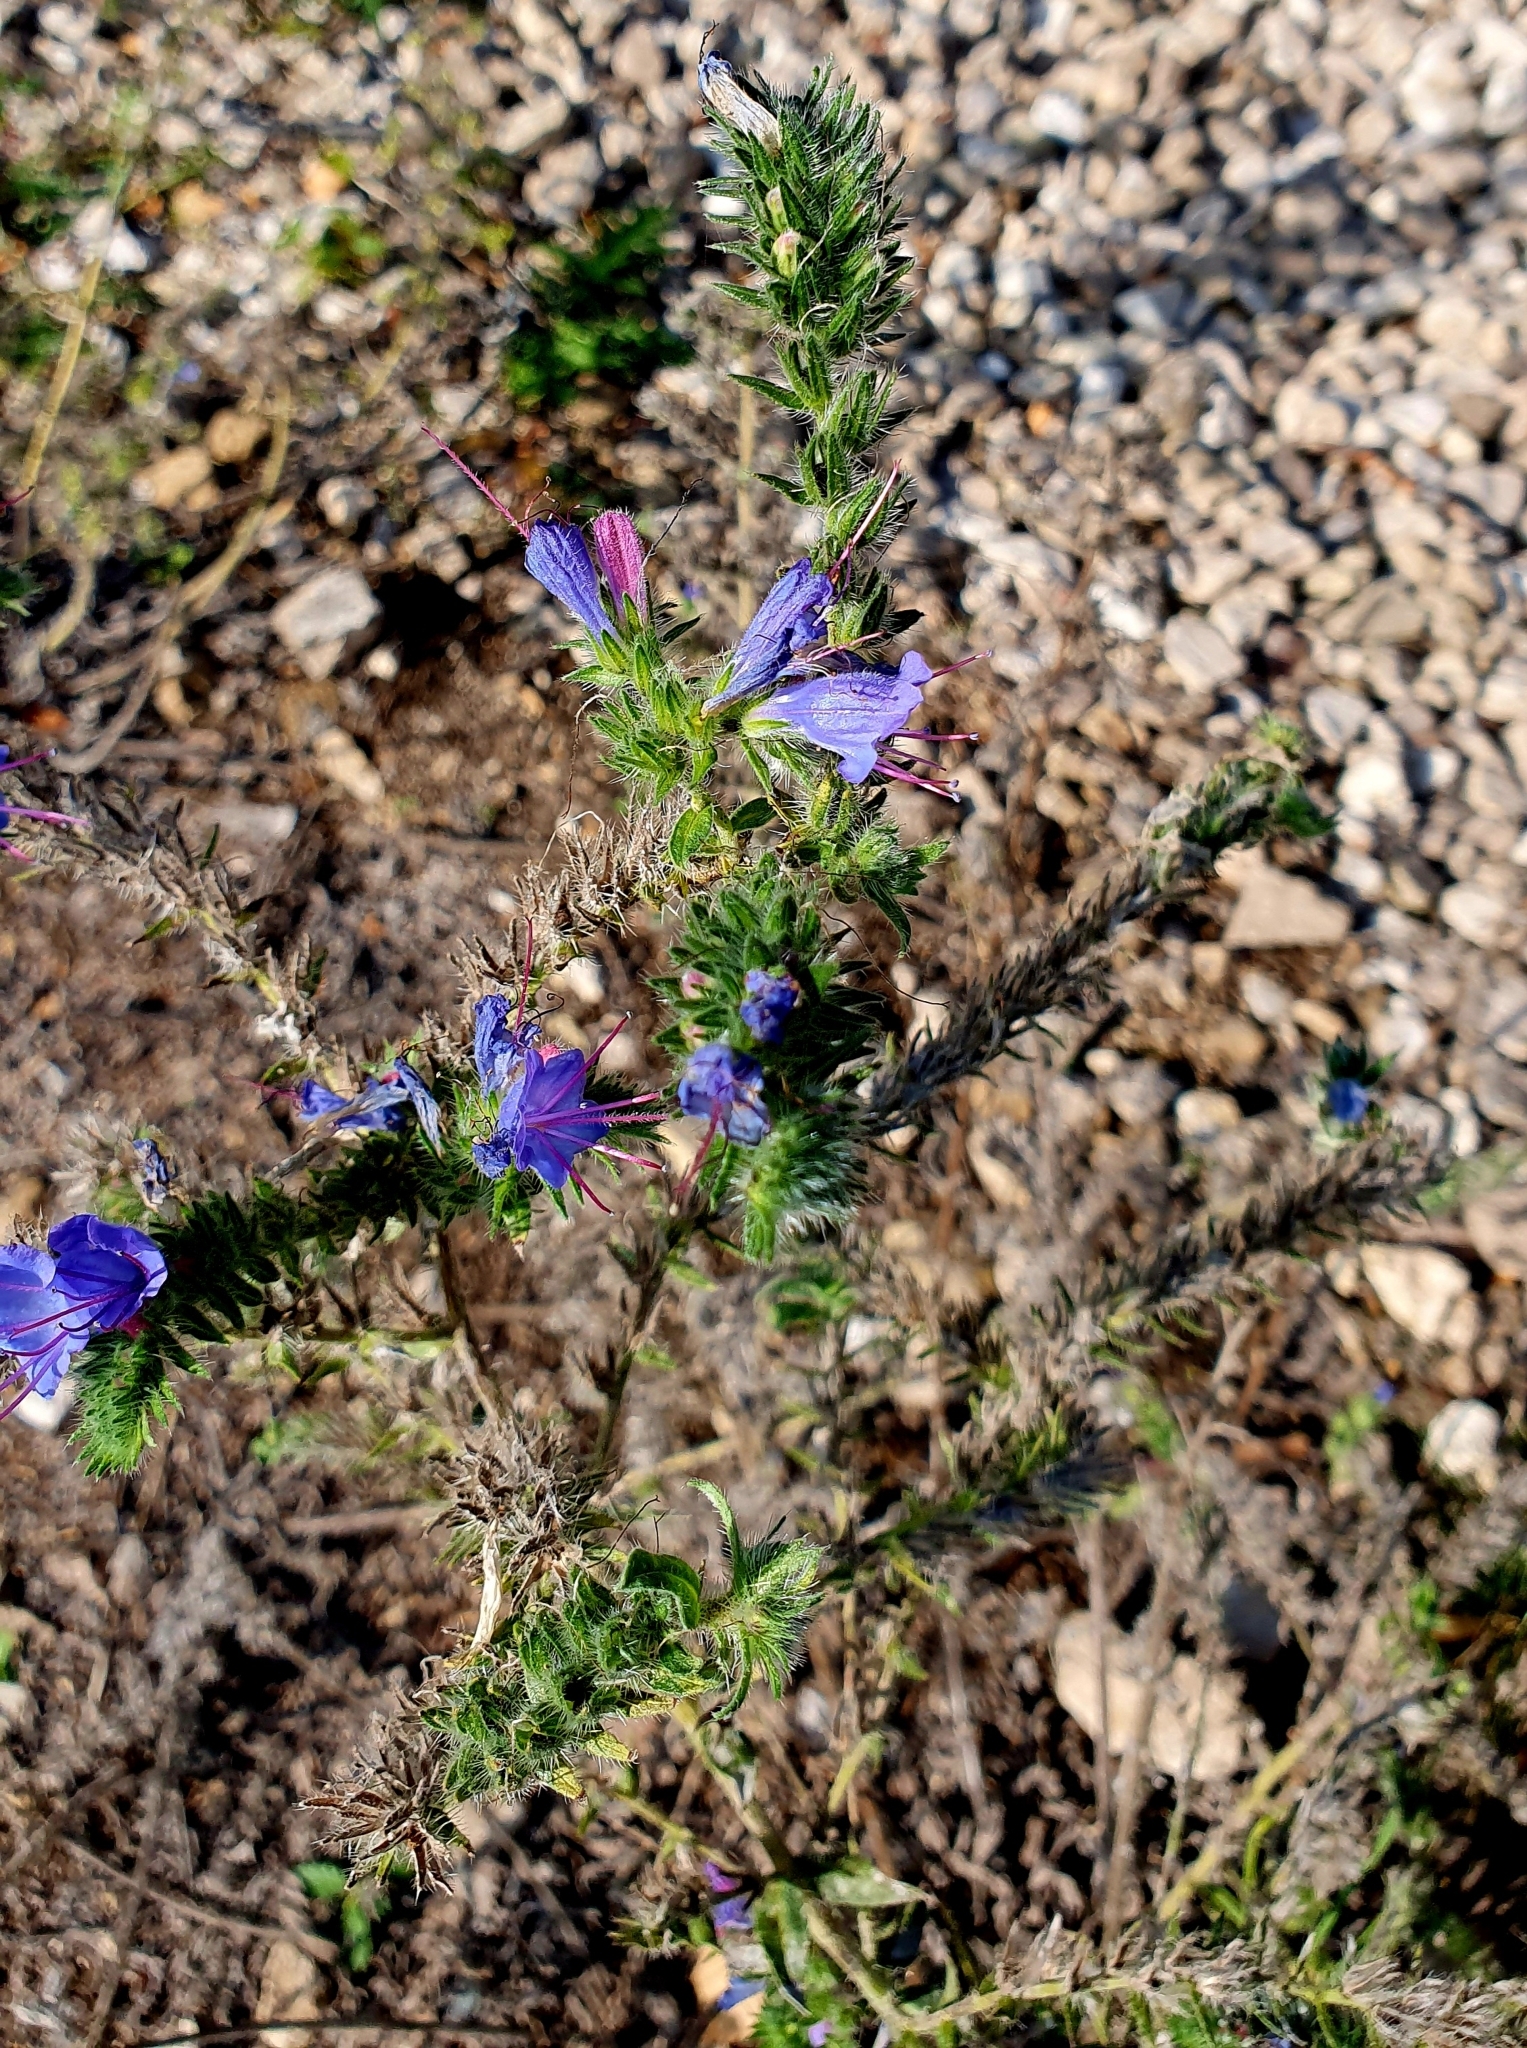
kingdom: Plantae
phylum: Tracheophyta
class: Magnoliopsida
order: Boraginales
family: Boraginaceae
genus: Echium
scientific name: Echium vulgare
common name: Common viper's bugloss
